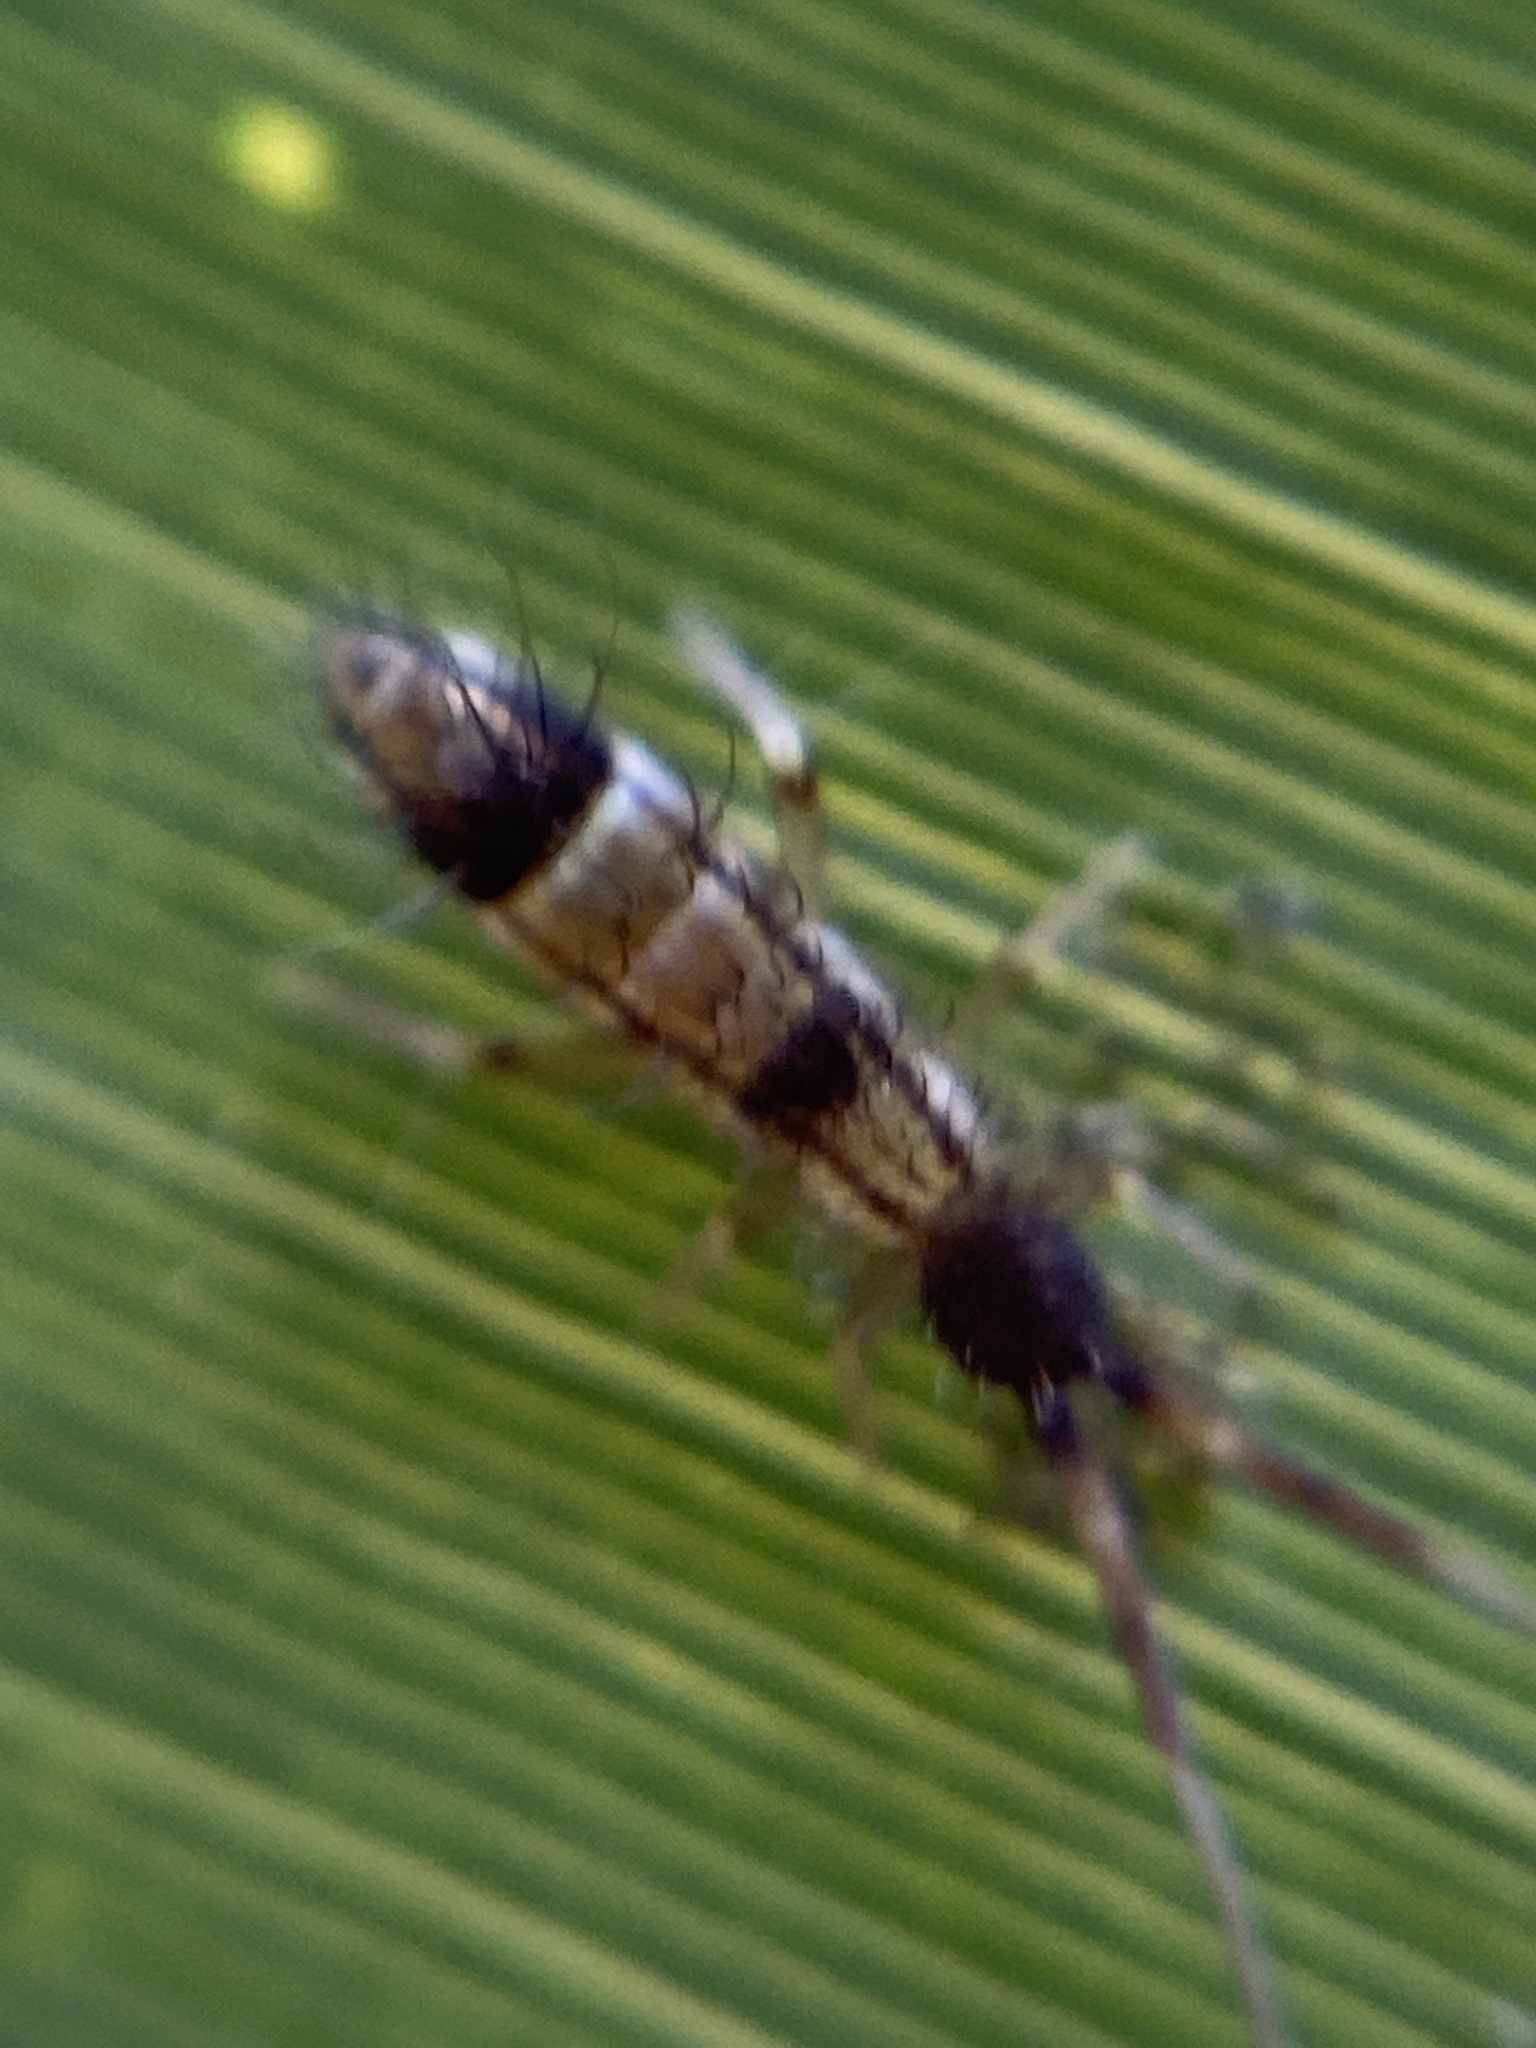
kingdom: Animalia
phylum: Arthropoda
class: Collembola
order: Entomobryomorpha
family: Entomobryidae
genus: Entomobrya
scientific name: Entomobrya nivalis
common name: Cosmopolitan springtail
